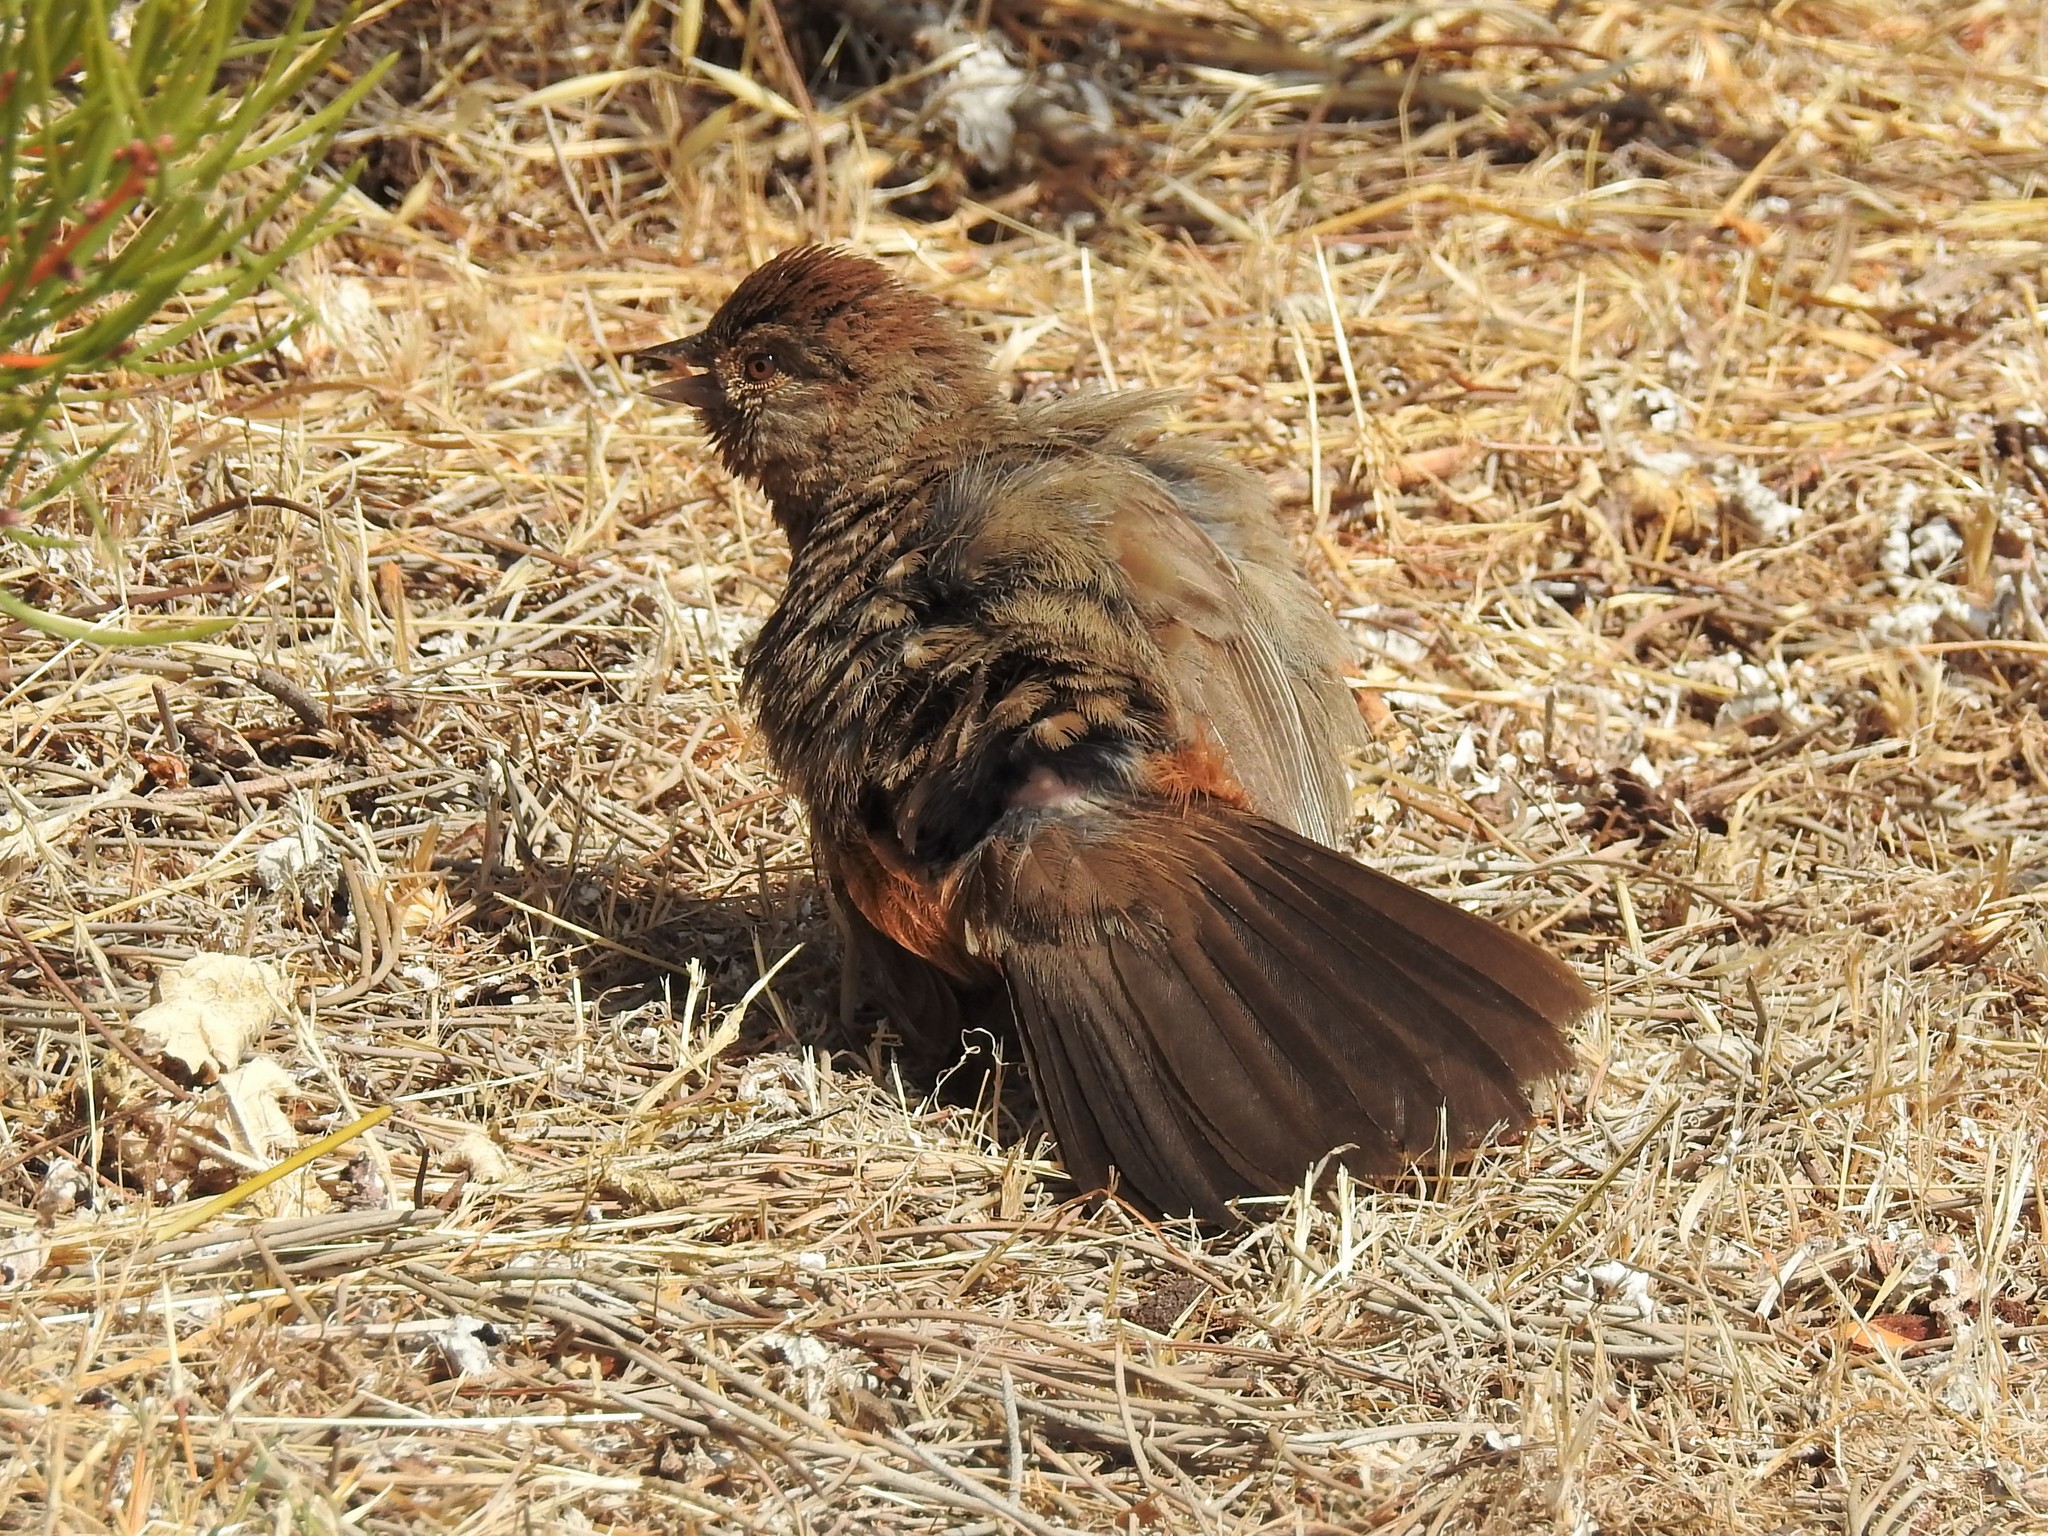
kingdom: Animalia
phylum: Chordata
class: Aves
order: Passeriformes
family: Passerellidae
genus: Melozone
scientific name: Melozone crissalis
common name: California towhee
